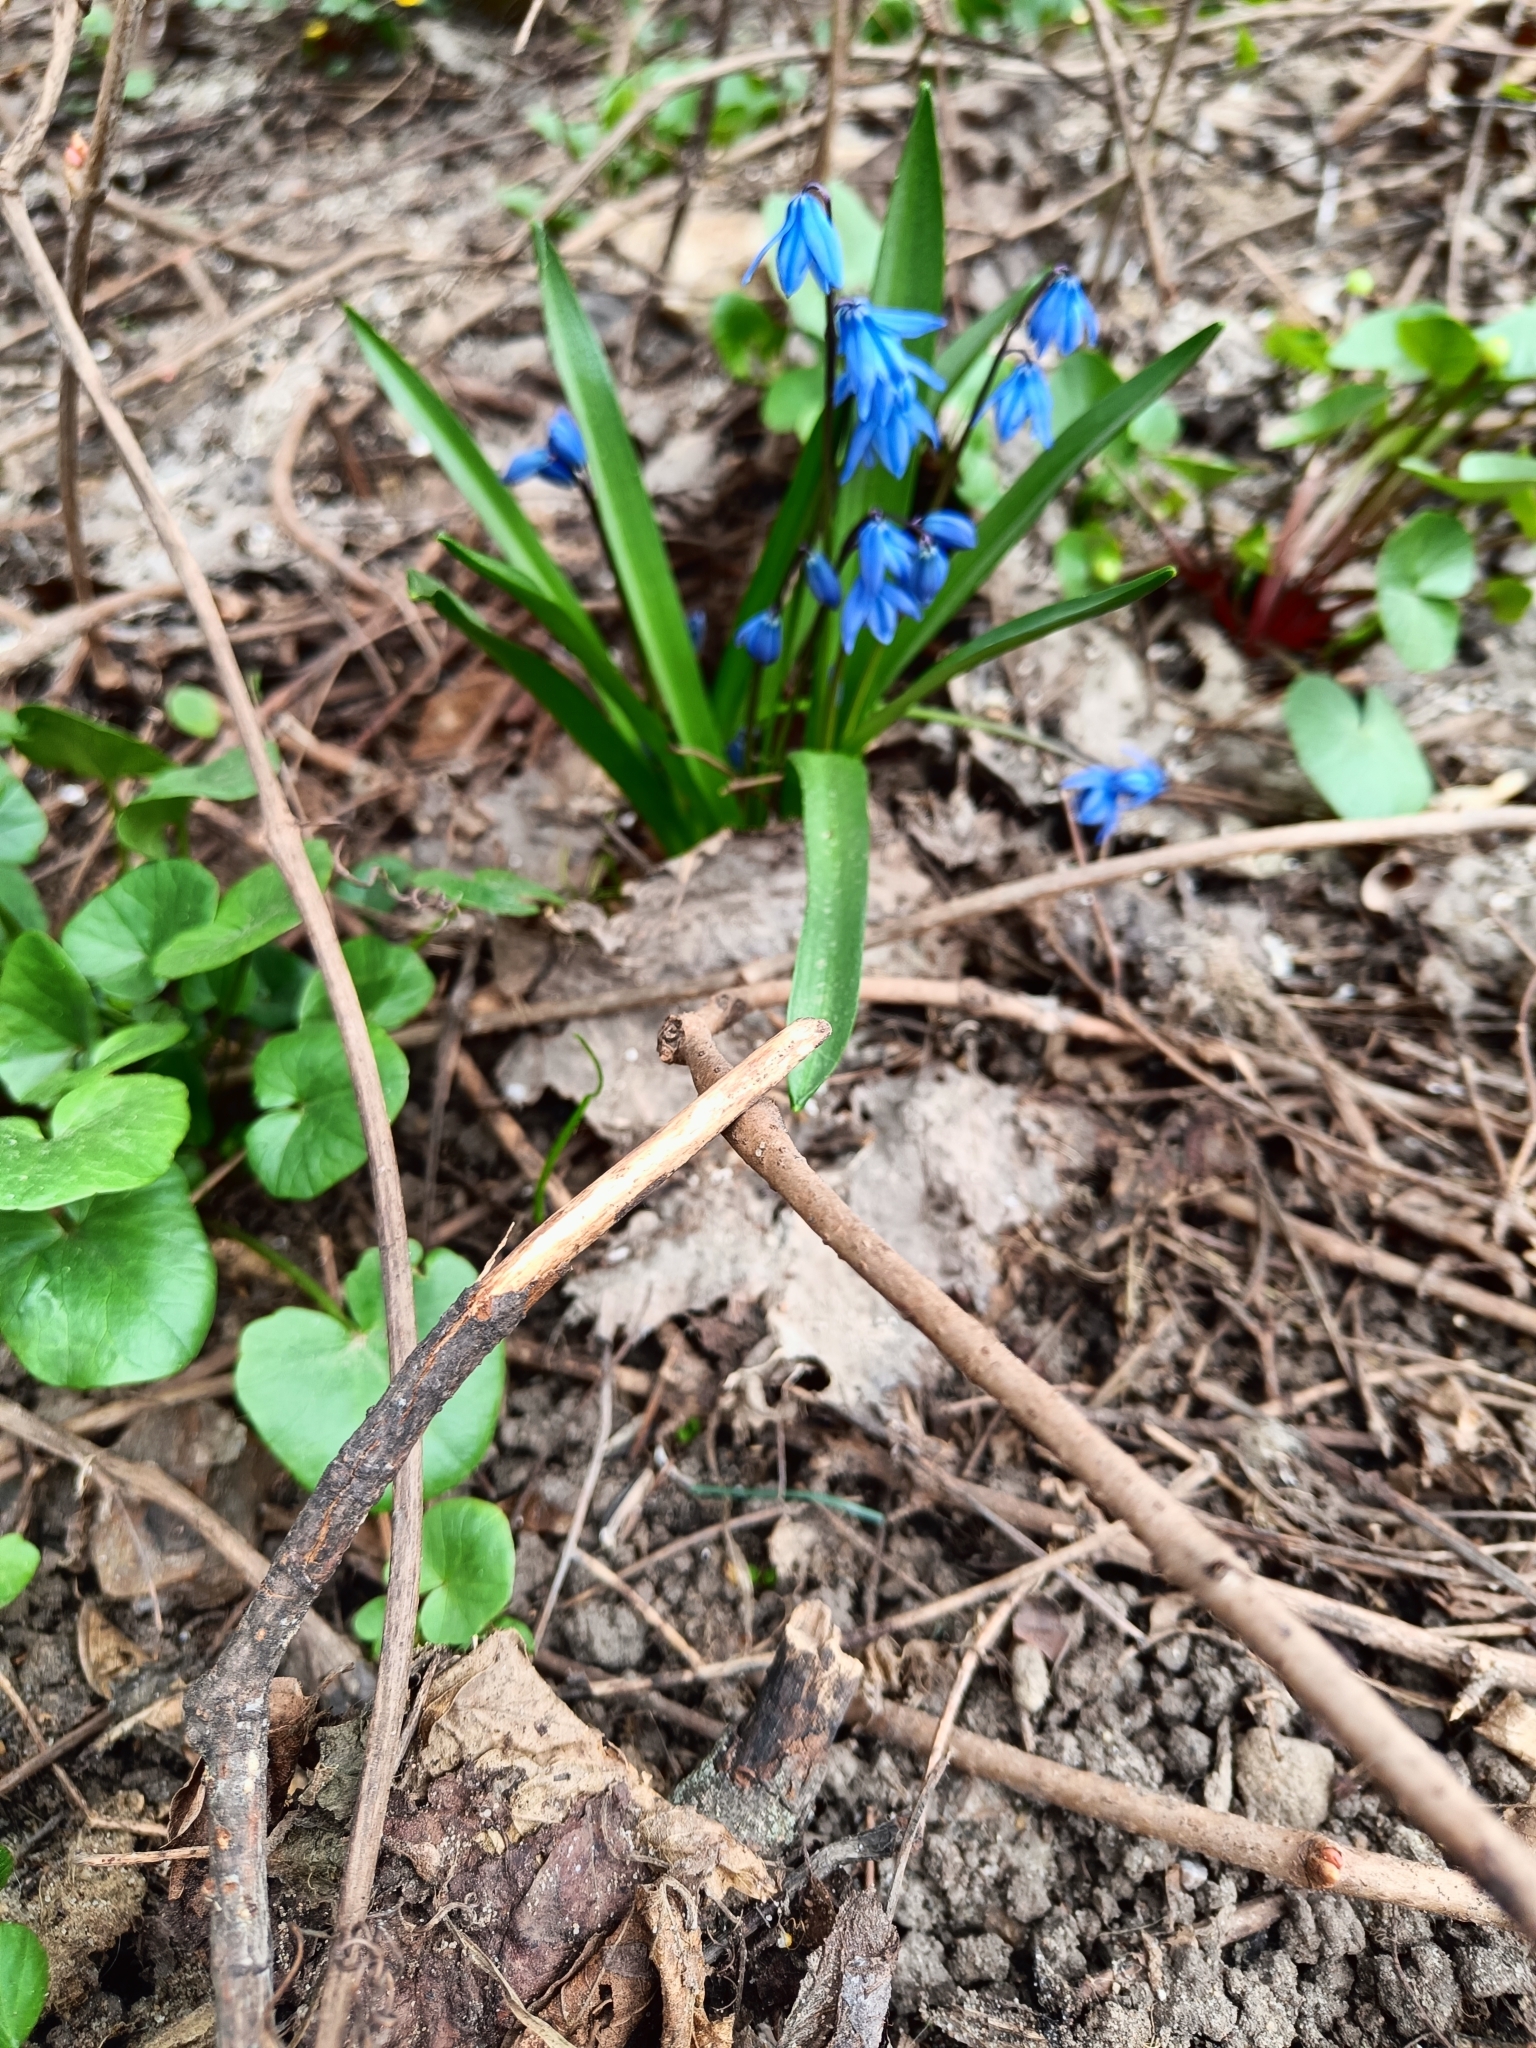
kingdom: Plantae
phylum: Tracheophyta
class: Liliopsida
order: Asparagales
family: Asparagaceae
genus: Scilla
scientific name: Scilla siberica
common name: Siberian squill
